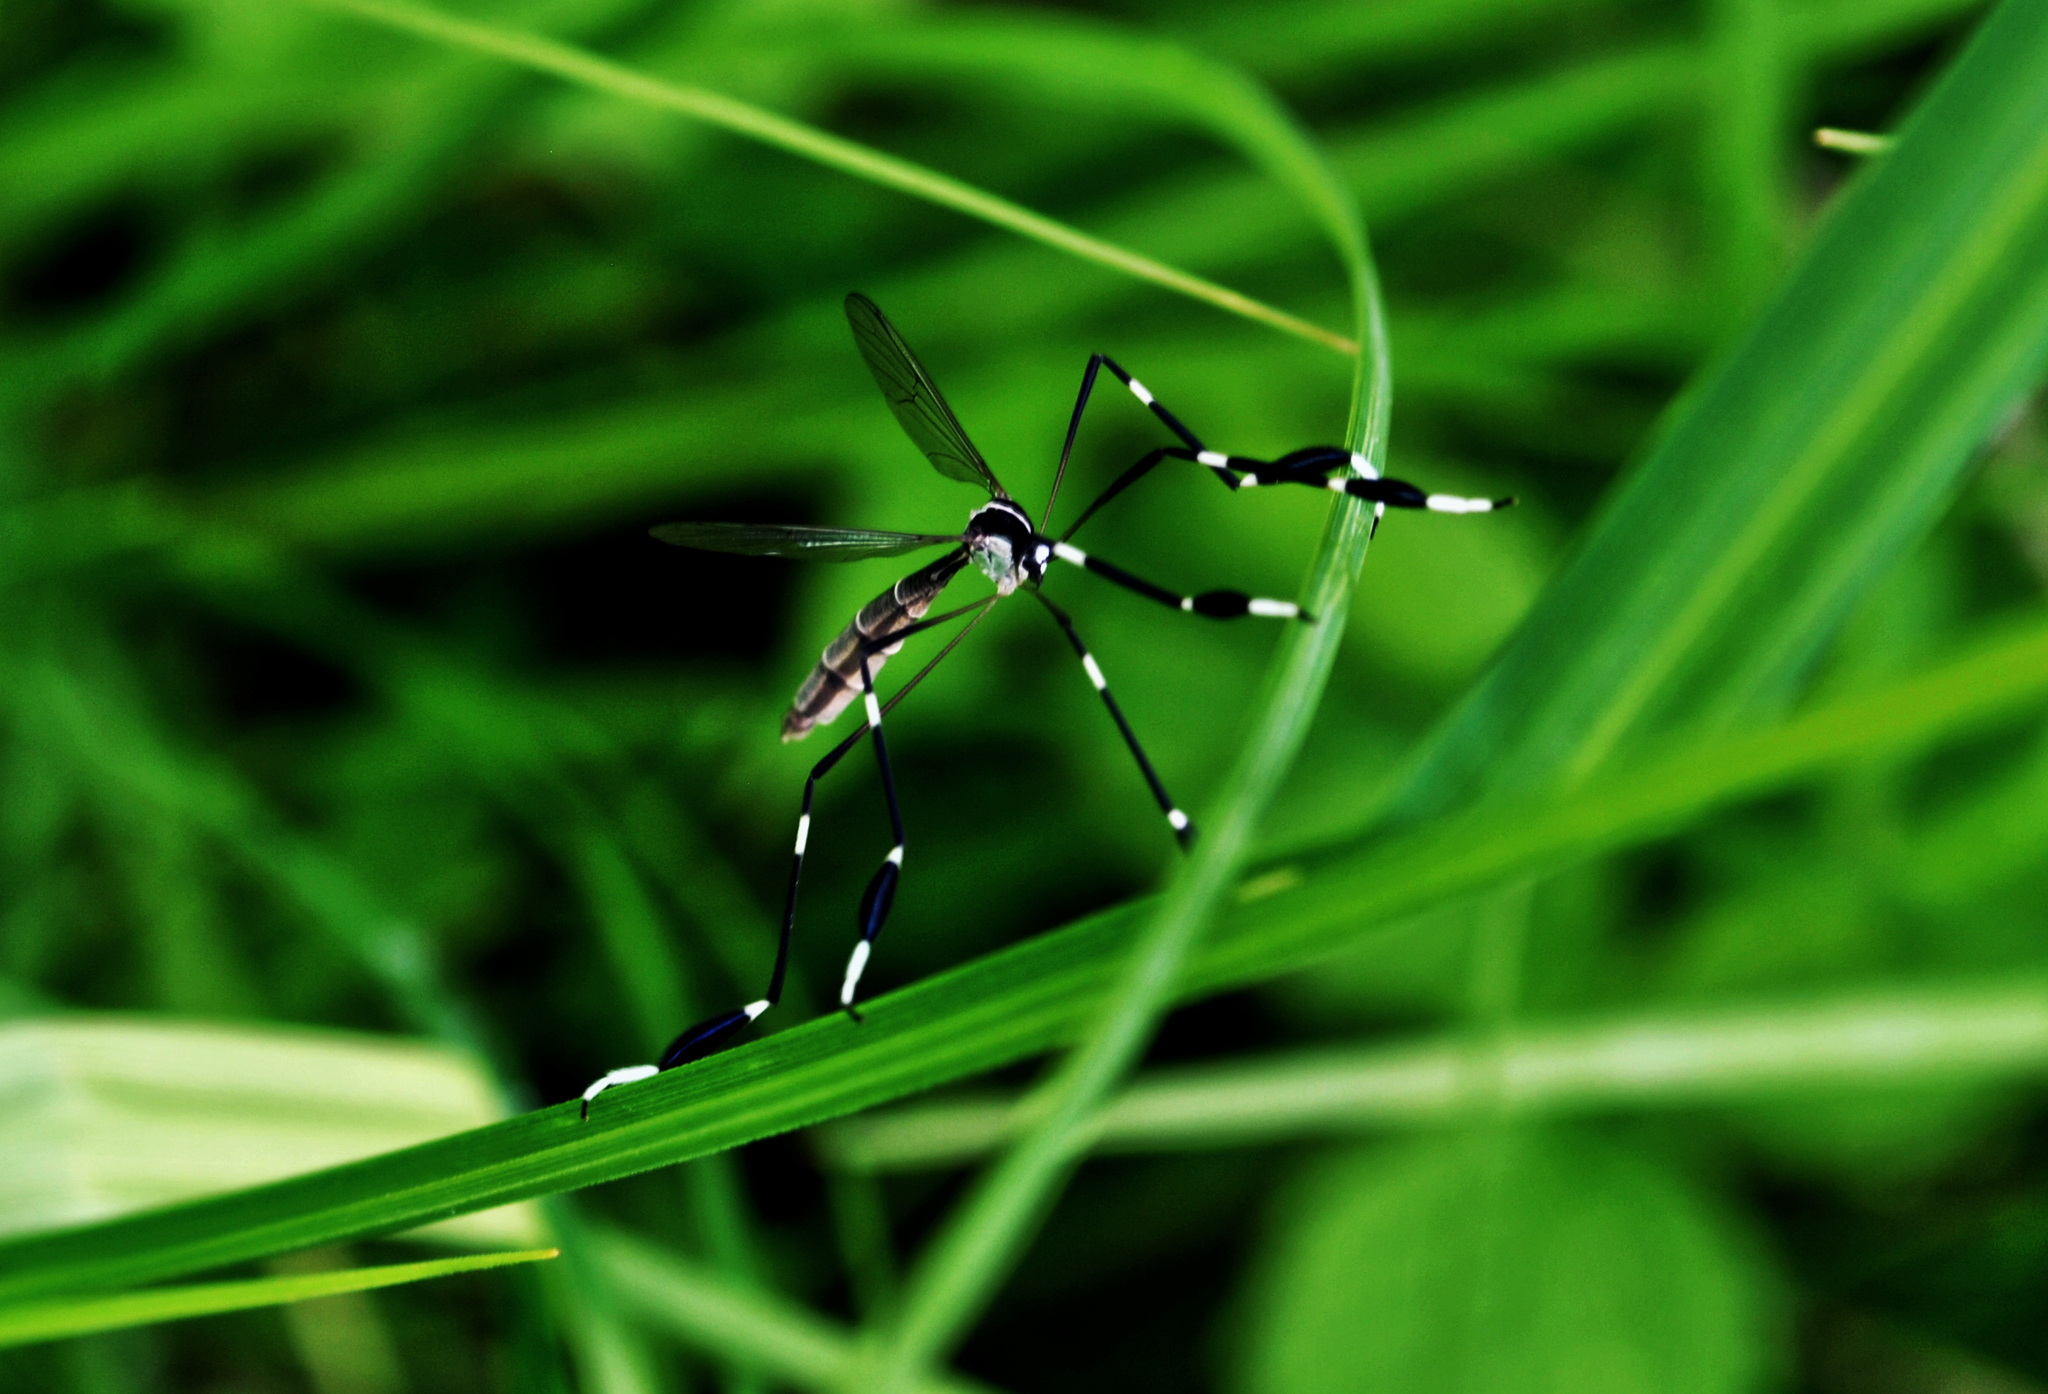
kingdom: Animalia
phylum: Arthropoda
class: Insecta
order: Diptera
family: Ptychopteridae
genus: Bittacomorpha
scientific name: Bittacomorpha clavipes
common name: Eastern phantom crane fly
